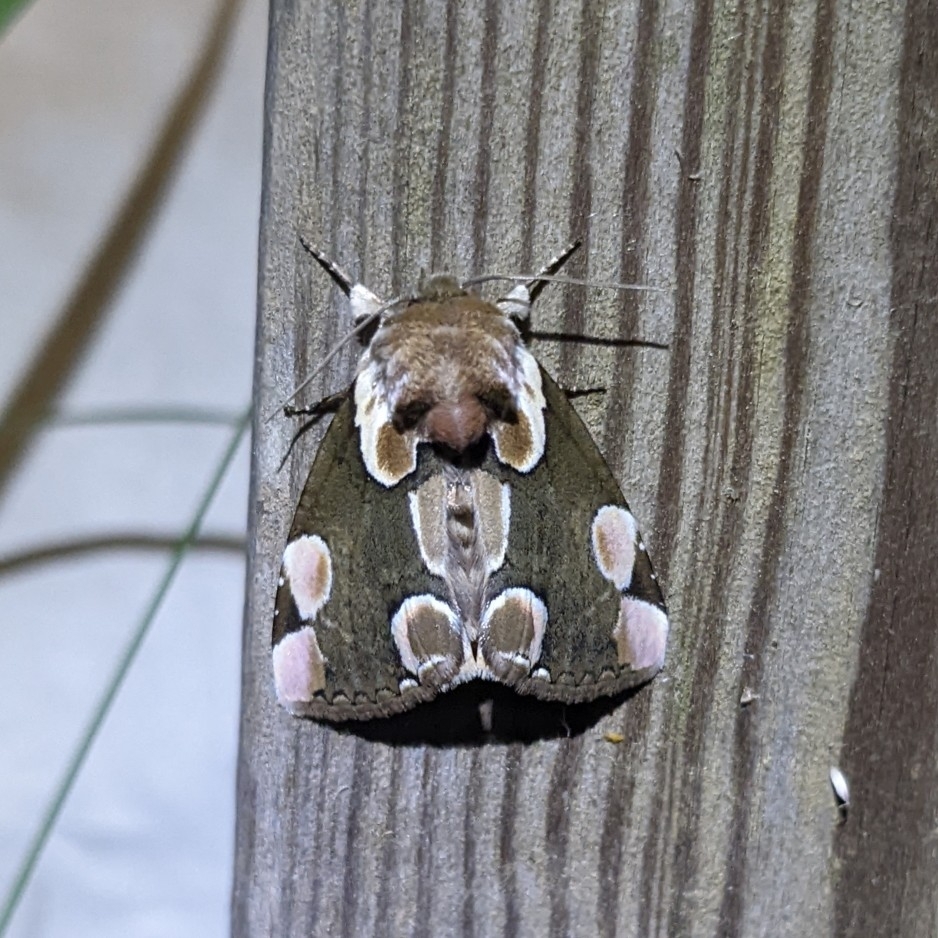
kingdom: Animalia
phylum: Arthropoda
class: Insecta
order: Lepidoptera
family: Drepanidae
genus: Thyatira
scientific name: Thyatira batis
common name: Peach blossom
